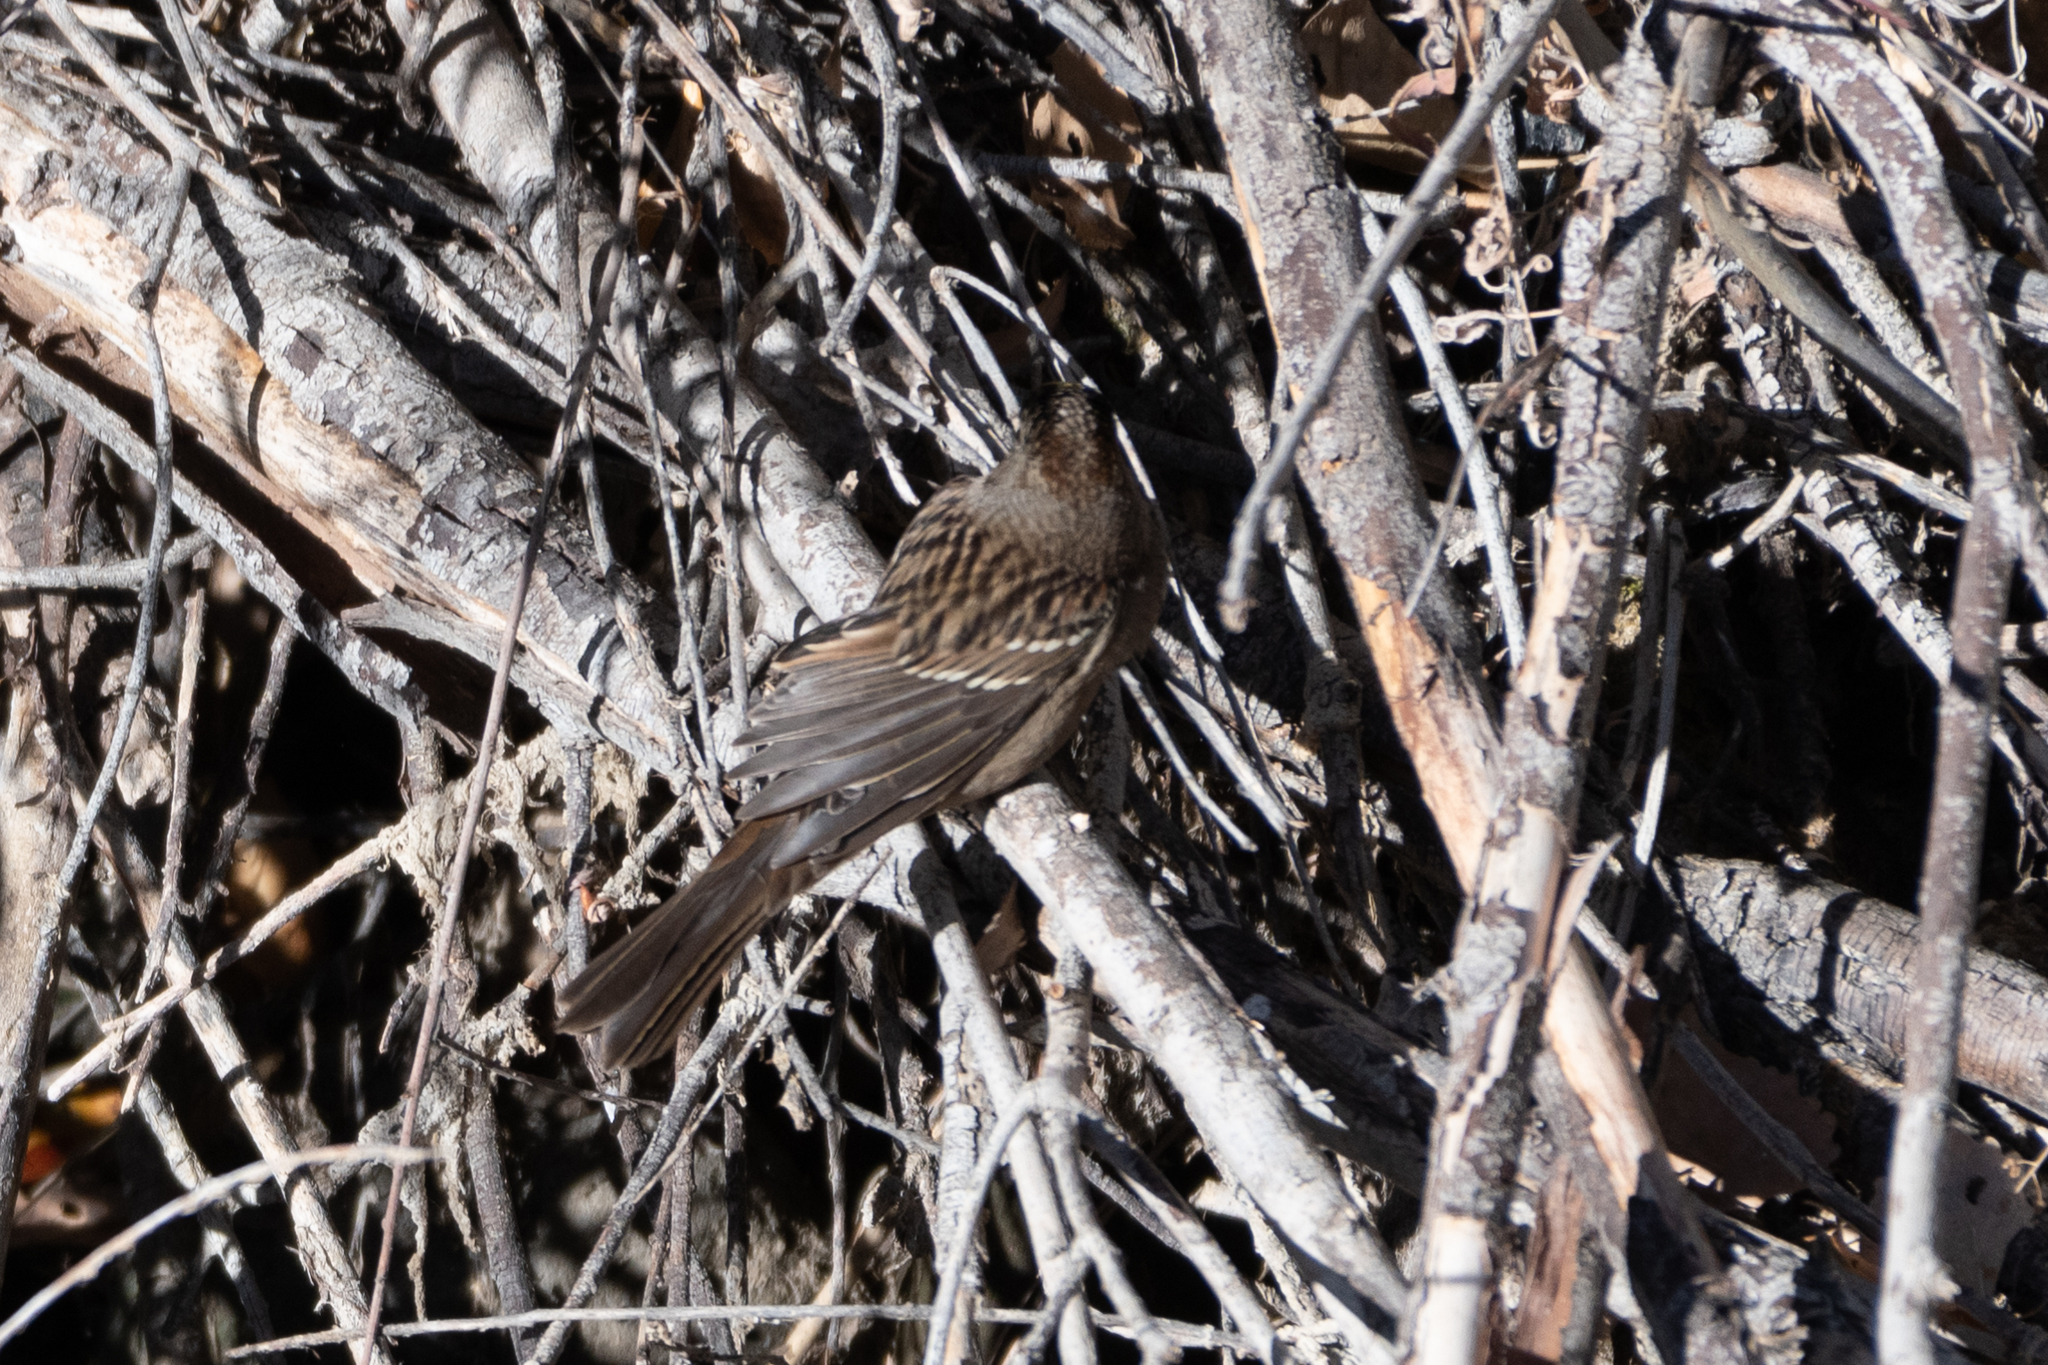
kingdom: Animalia
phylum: Chordata
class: Aves
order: Passeriformes
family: Passerellidae
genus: Zonotrichia
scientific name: Zonotrichia atricapilla
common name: Golden-crowned sparrow
